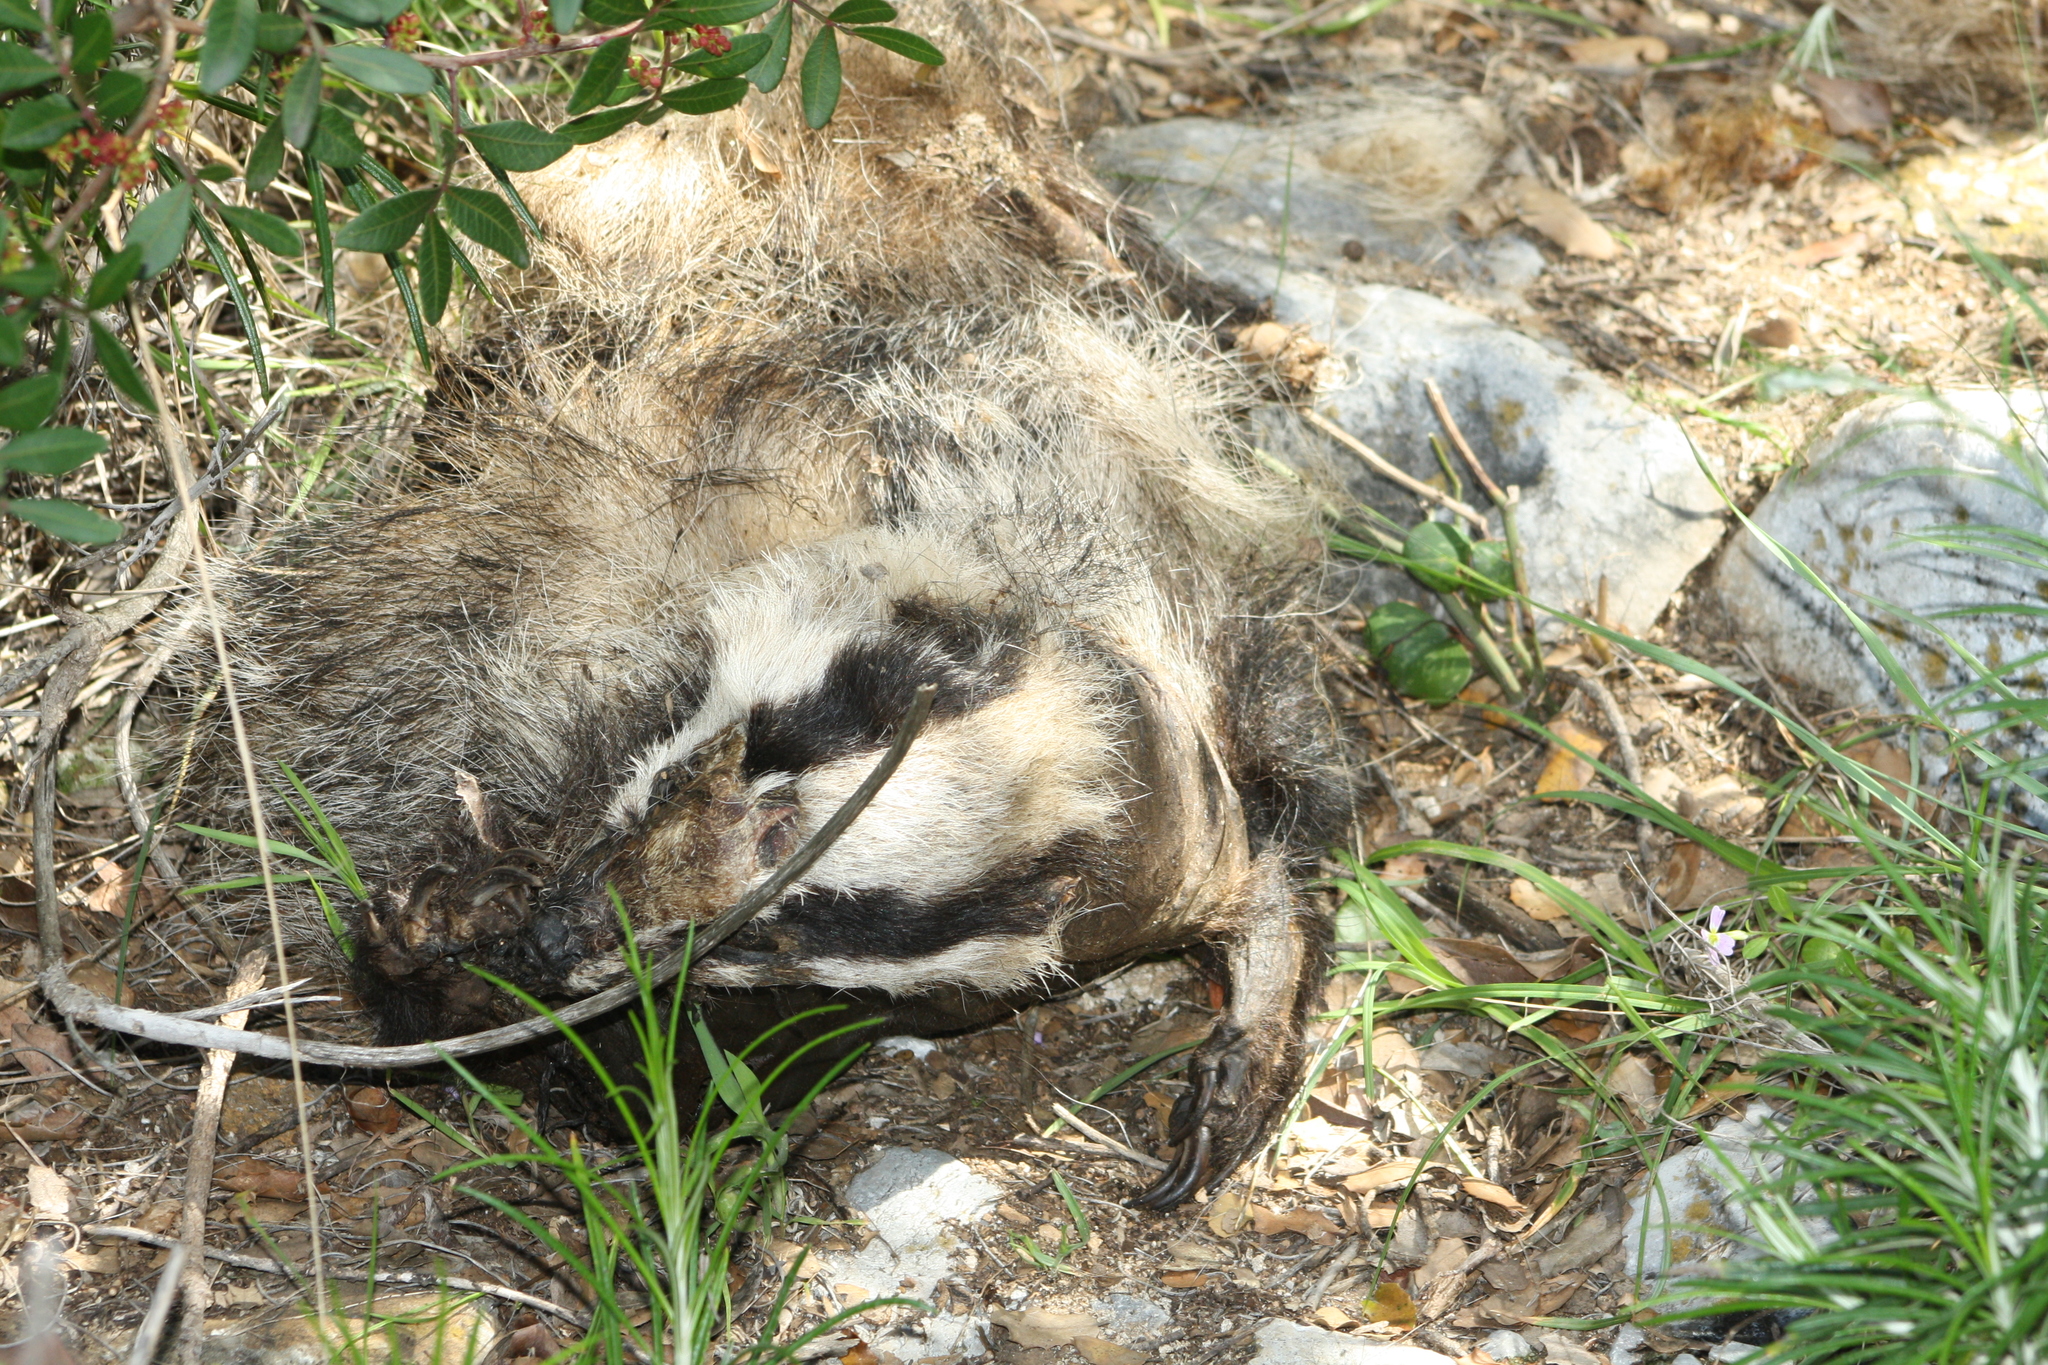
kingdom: Animalia
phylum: Chordata
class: Mammalia
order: Carnivora
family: Mustelidae
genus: Meles
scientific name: Meles meles
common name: Eurasian badger
